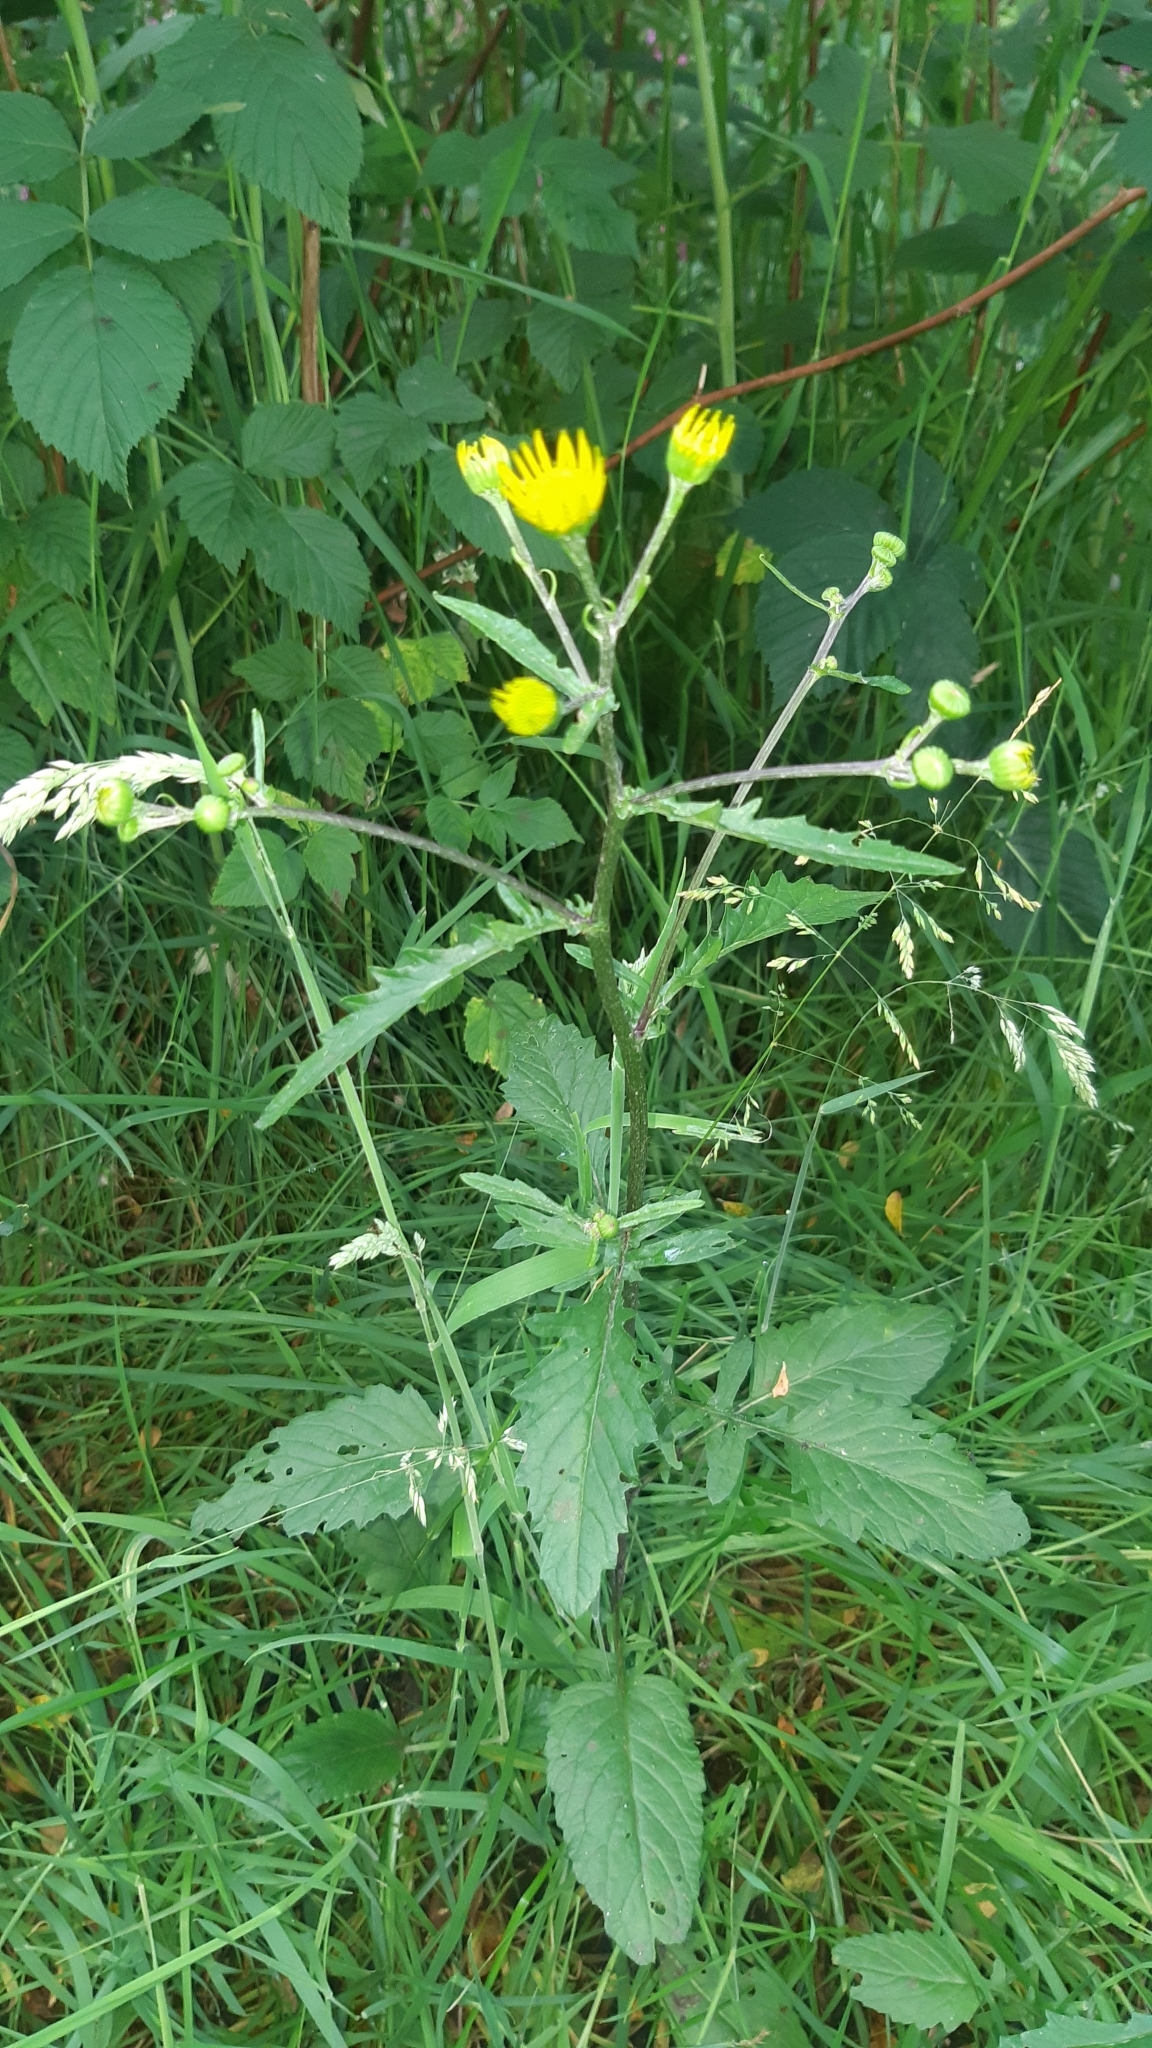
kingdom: Plantae
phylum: Tracheophyta
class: Magnoliopsida
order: Asterales
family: Asteraceae
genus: Jacobaea
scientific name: Jacobaea aquatica
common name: Water ragwort
